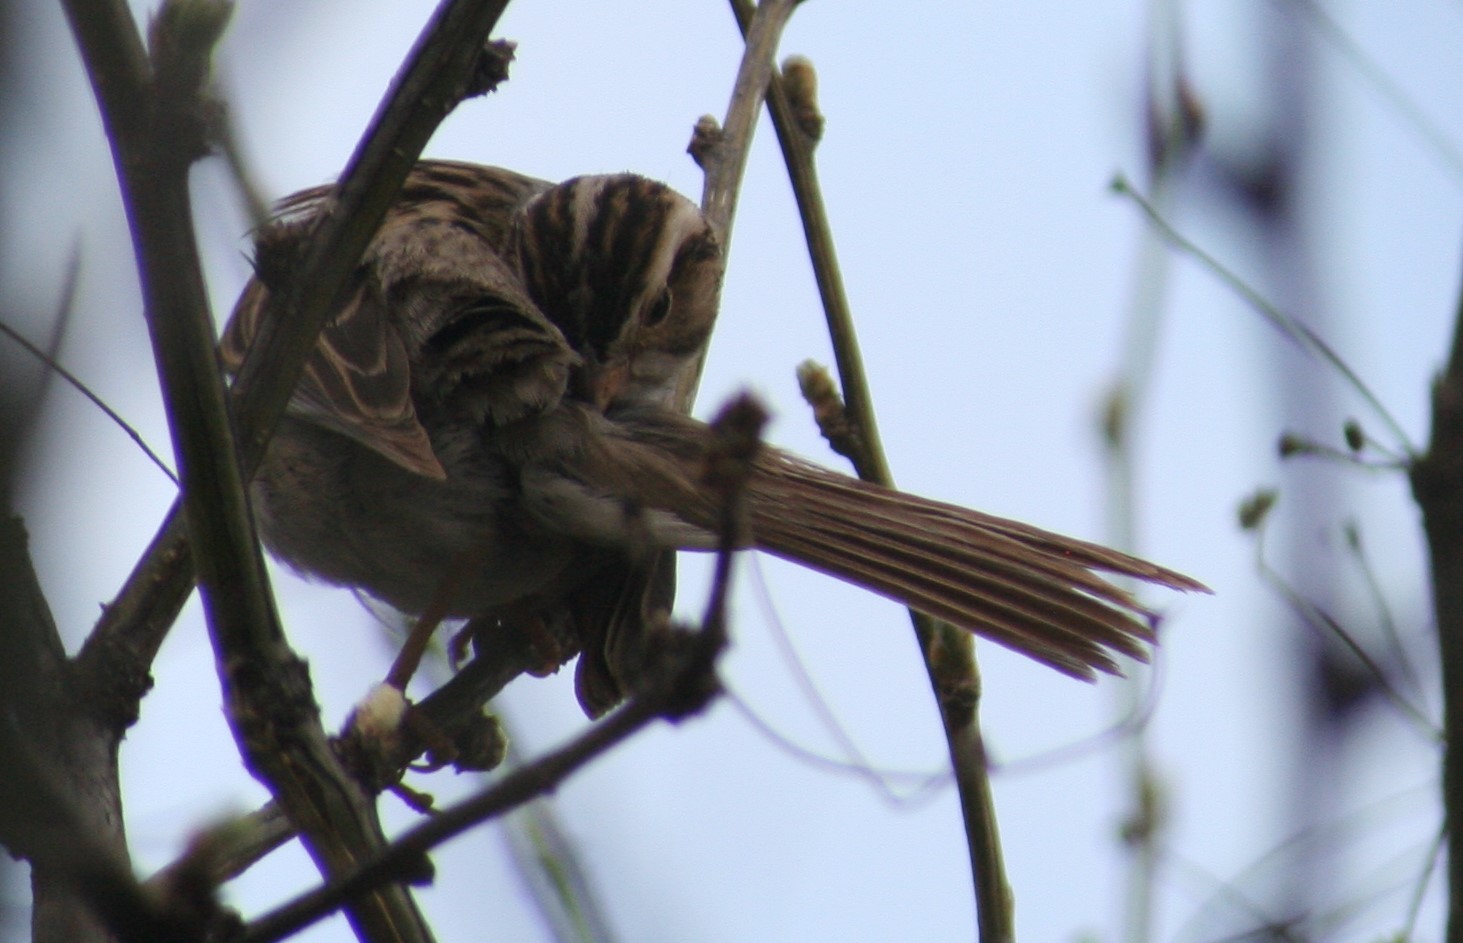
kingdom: Animalia
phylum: Chordata
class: Aves
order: Passeriformes
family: Passerellidae
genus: Spizella
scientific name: Spizella pallida
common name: Clay-colored sparrow
